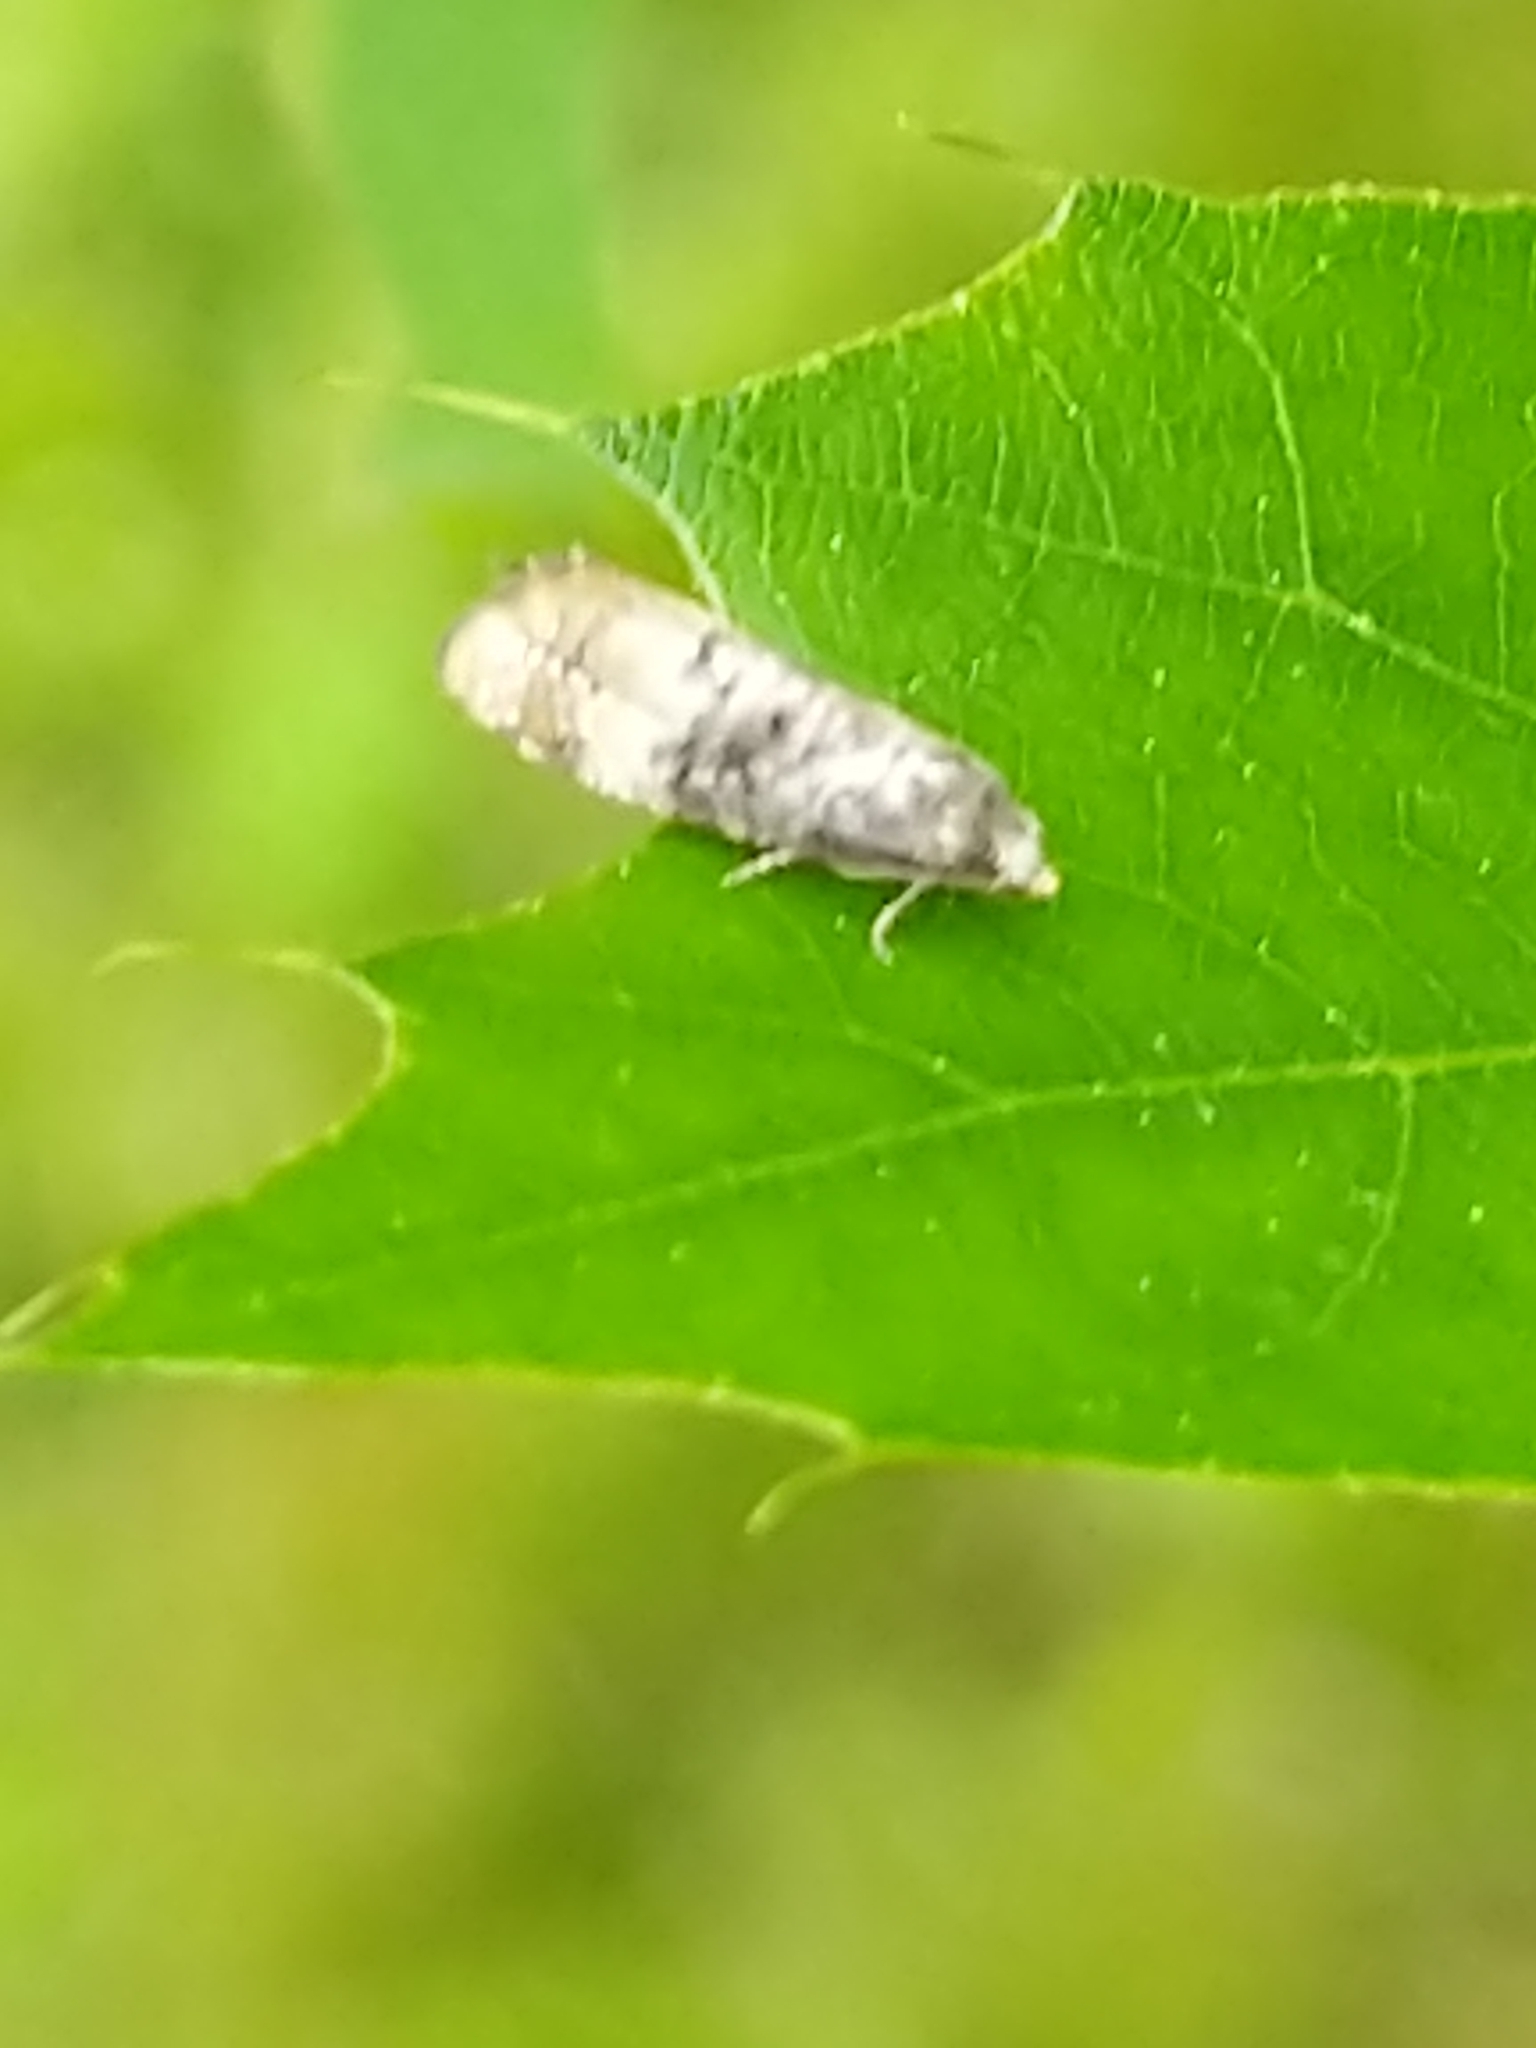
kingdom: Animalia
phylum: Arthropoda
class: Insecta
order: Lepidoptera
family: Tortricidae
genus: Thyraylia
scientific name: Thyraylia nana
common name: Birch conch
